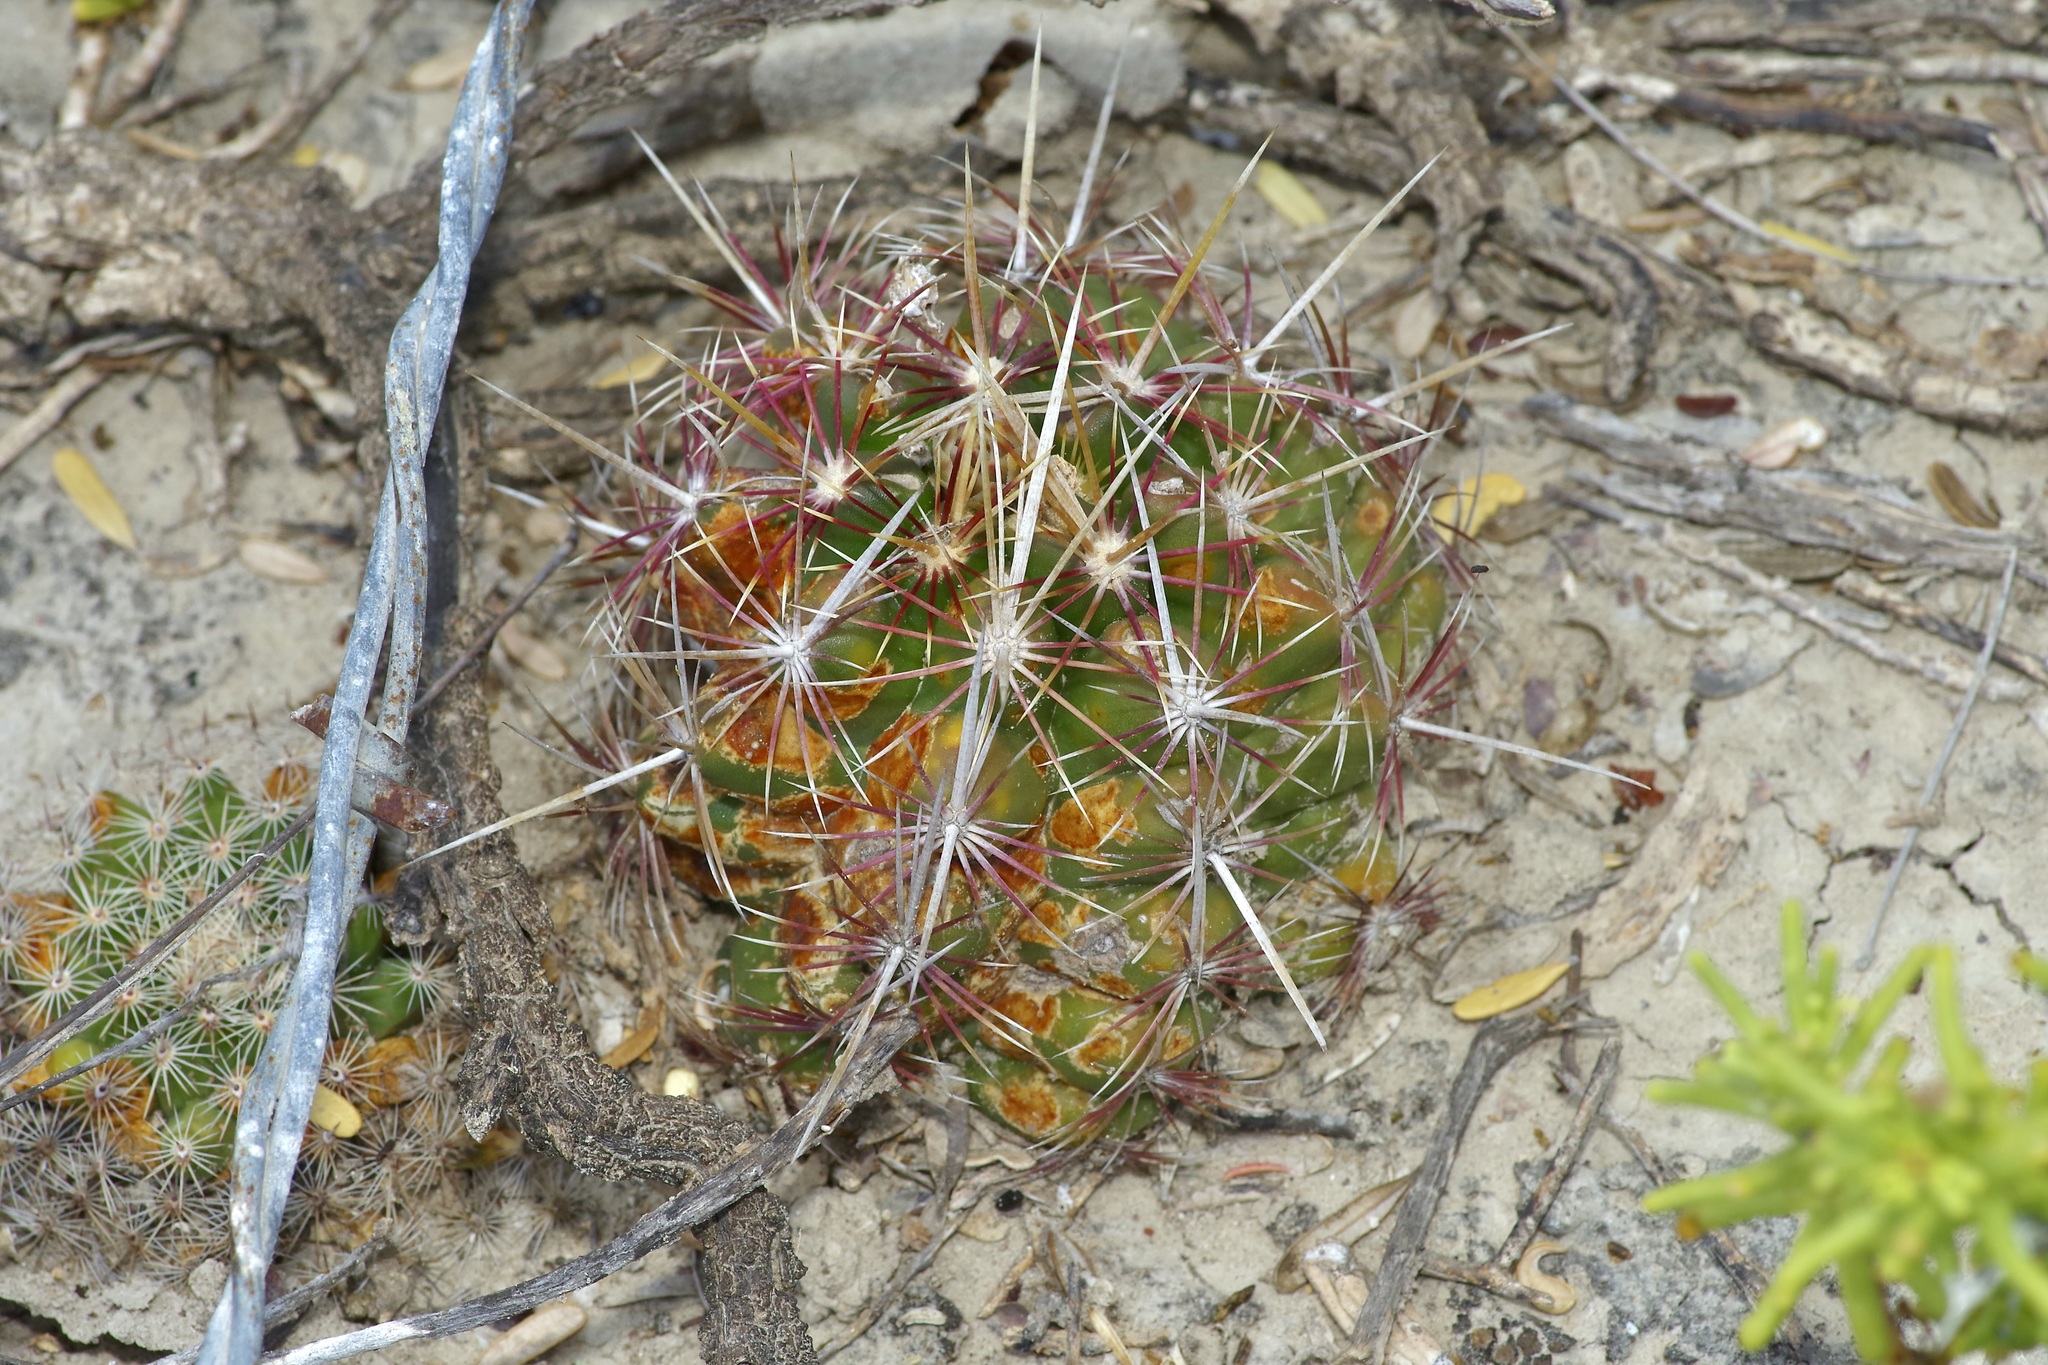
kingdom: Plantae
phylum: Tracheophyta
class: Magnoliopsida
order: Caryophyllales
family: Cactaceae
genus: Thelocactus
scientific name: Thelocactus bicolor
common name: Glory of texas
